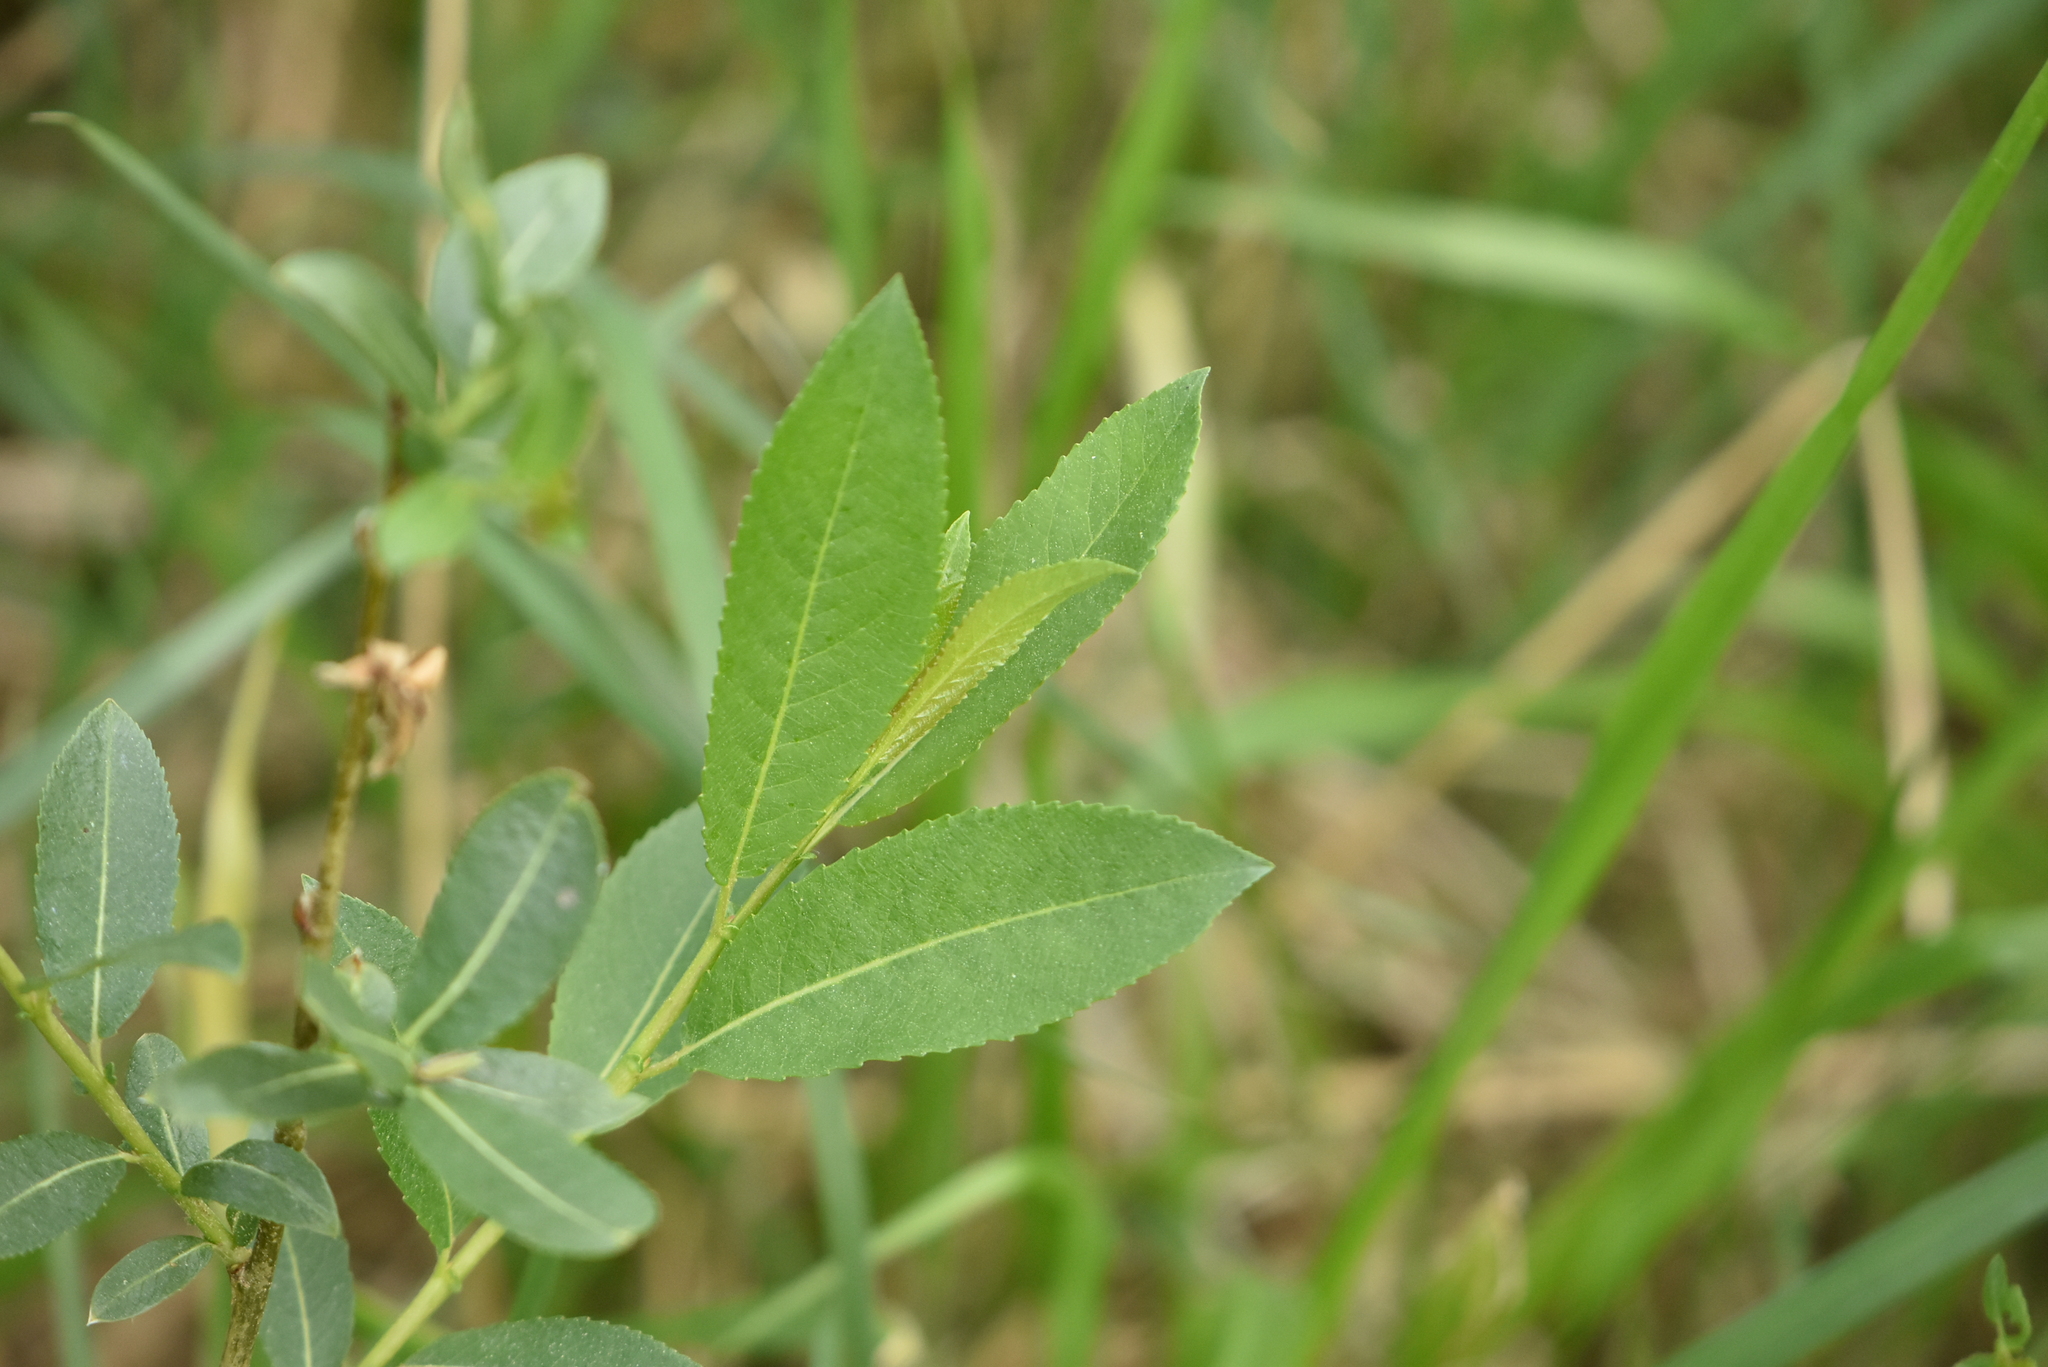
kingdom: Plantae
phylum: Tracheophyta
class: Magnoliopsida
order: Malpighiales
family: Salicaceae
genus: Salix
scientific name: Salix triandra
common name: Almond willow
